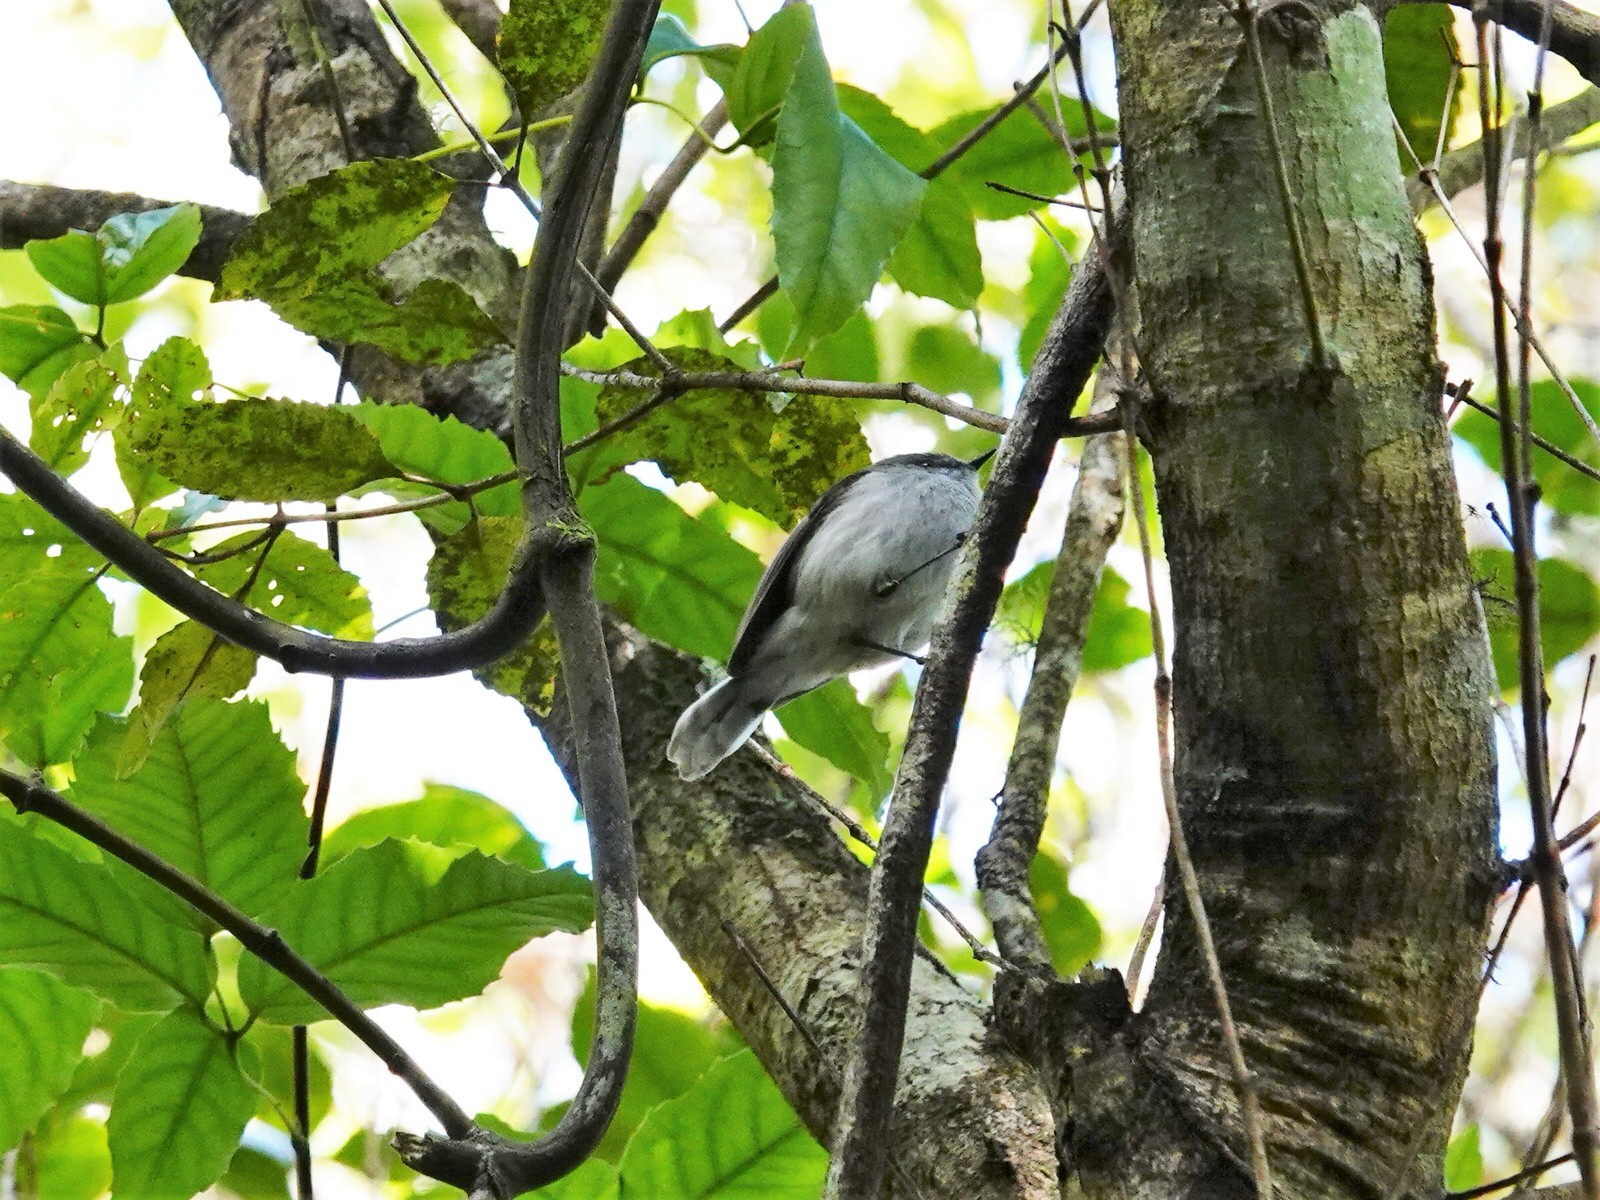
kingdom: Animalia
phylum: Chordata
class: Aves
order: Passeriformes
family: Acanthizidae
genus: Gerygone
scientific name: Gerygone igata
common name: Grey gerygone
